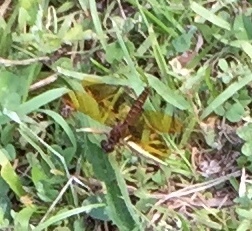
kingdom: Animalia
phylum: Arthropoda
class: Insecta
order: Odonata
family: Libellulidae
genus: Perithemis
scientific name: Perithemis tenera
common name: Eastern amberwing
